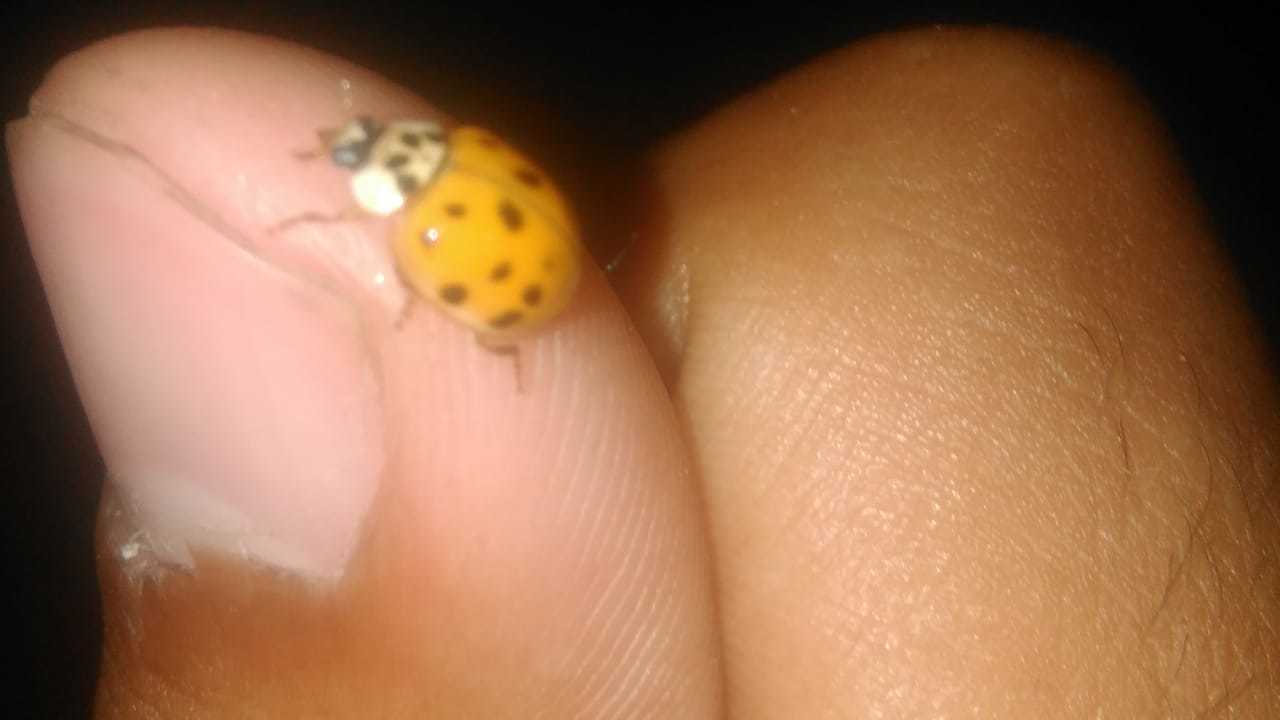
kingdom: Animalia
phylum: Arthropoda
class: Insecta
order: Coleoptera
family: Coccinellidae
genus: Harmonia
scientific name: Harmonia axyridis
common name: Harlequin ladybird
